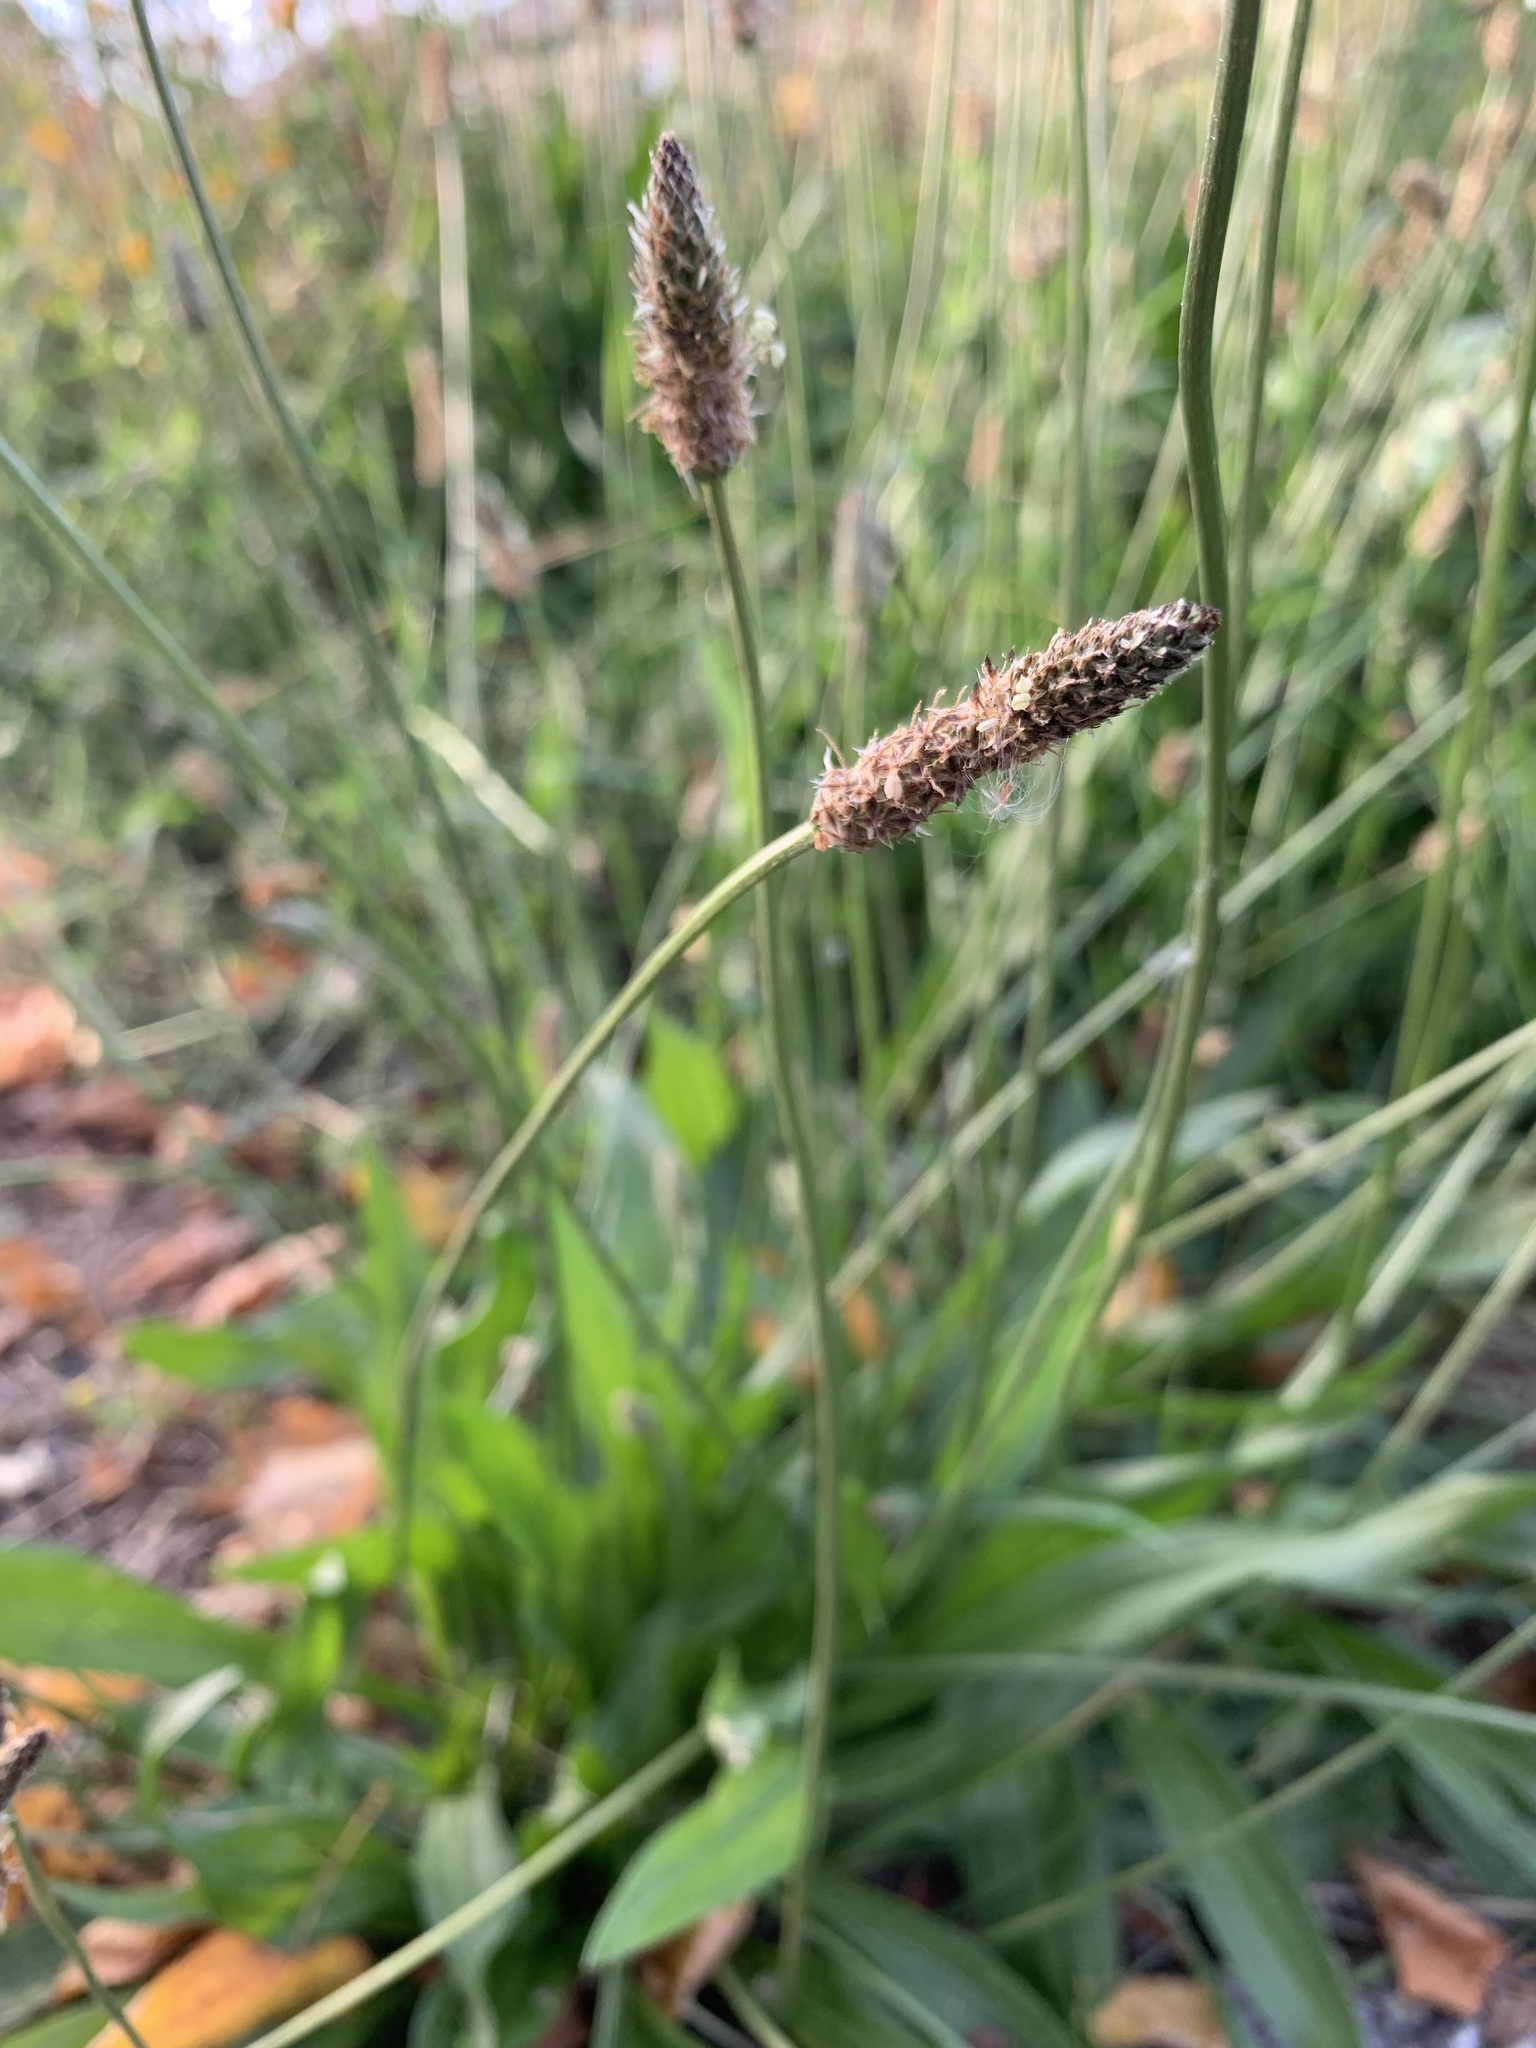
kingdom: Plantae
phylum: Tracheophyta
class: Magnoliopsida
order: Lamiales
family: Plantaginaceae
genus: Plantago
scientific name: Plantago lanceolata
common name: Ribwort plantain
